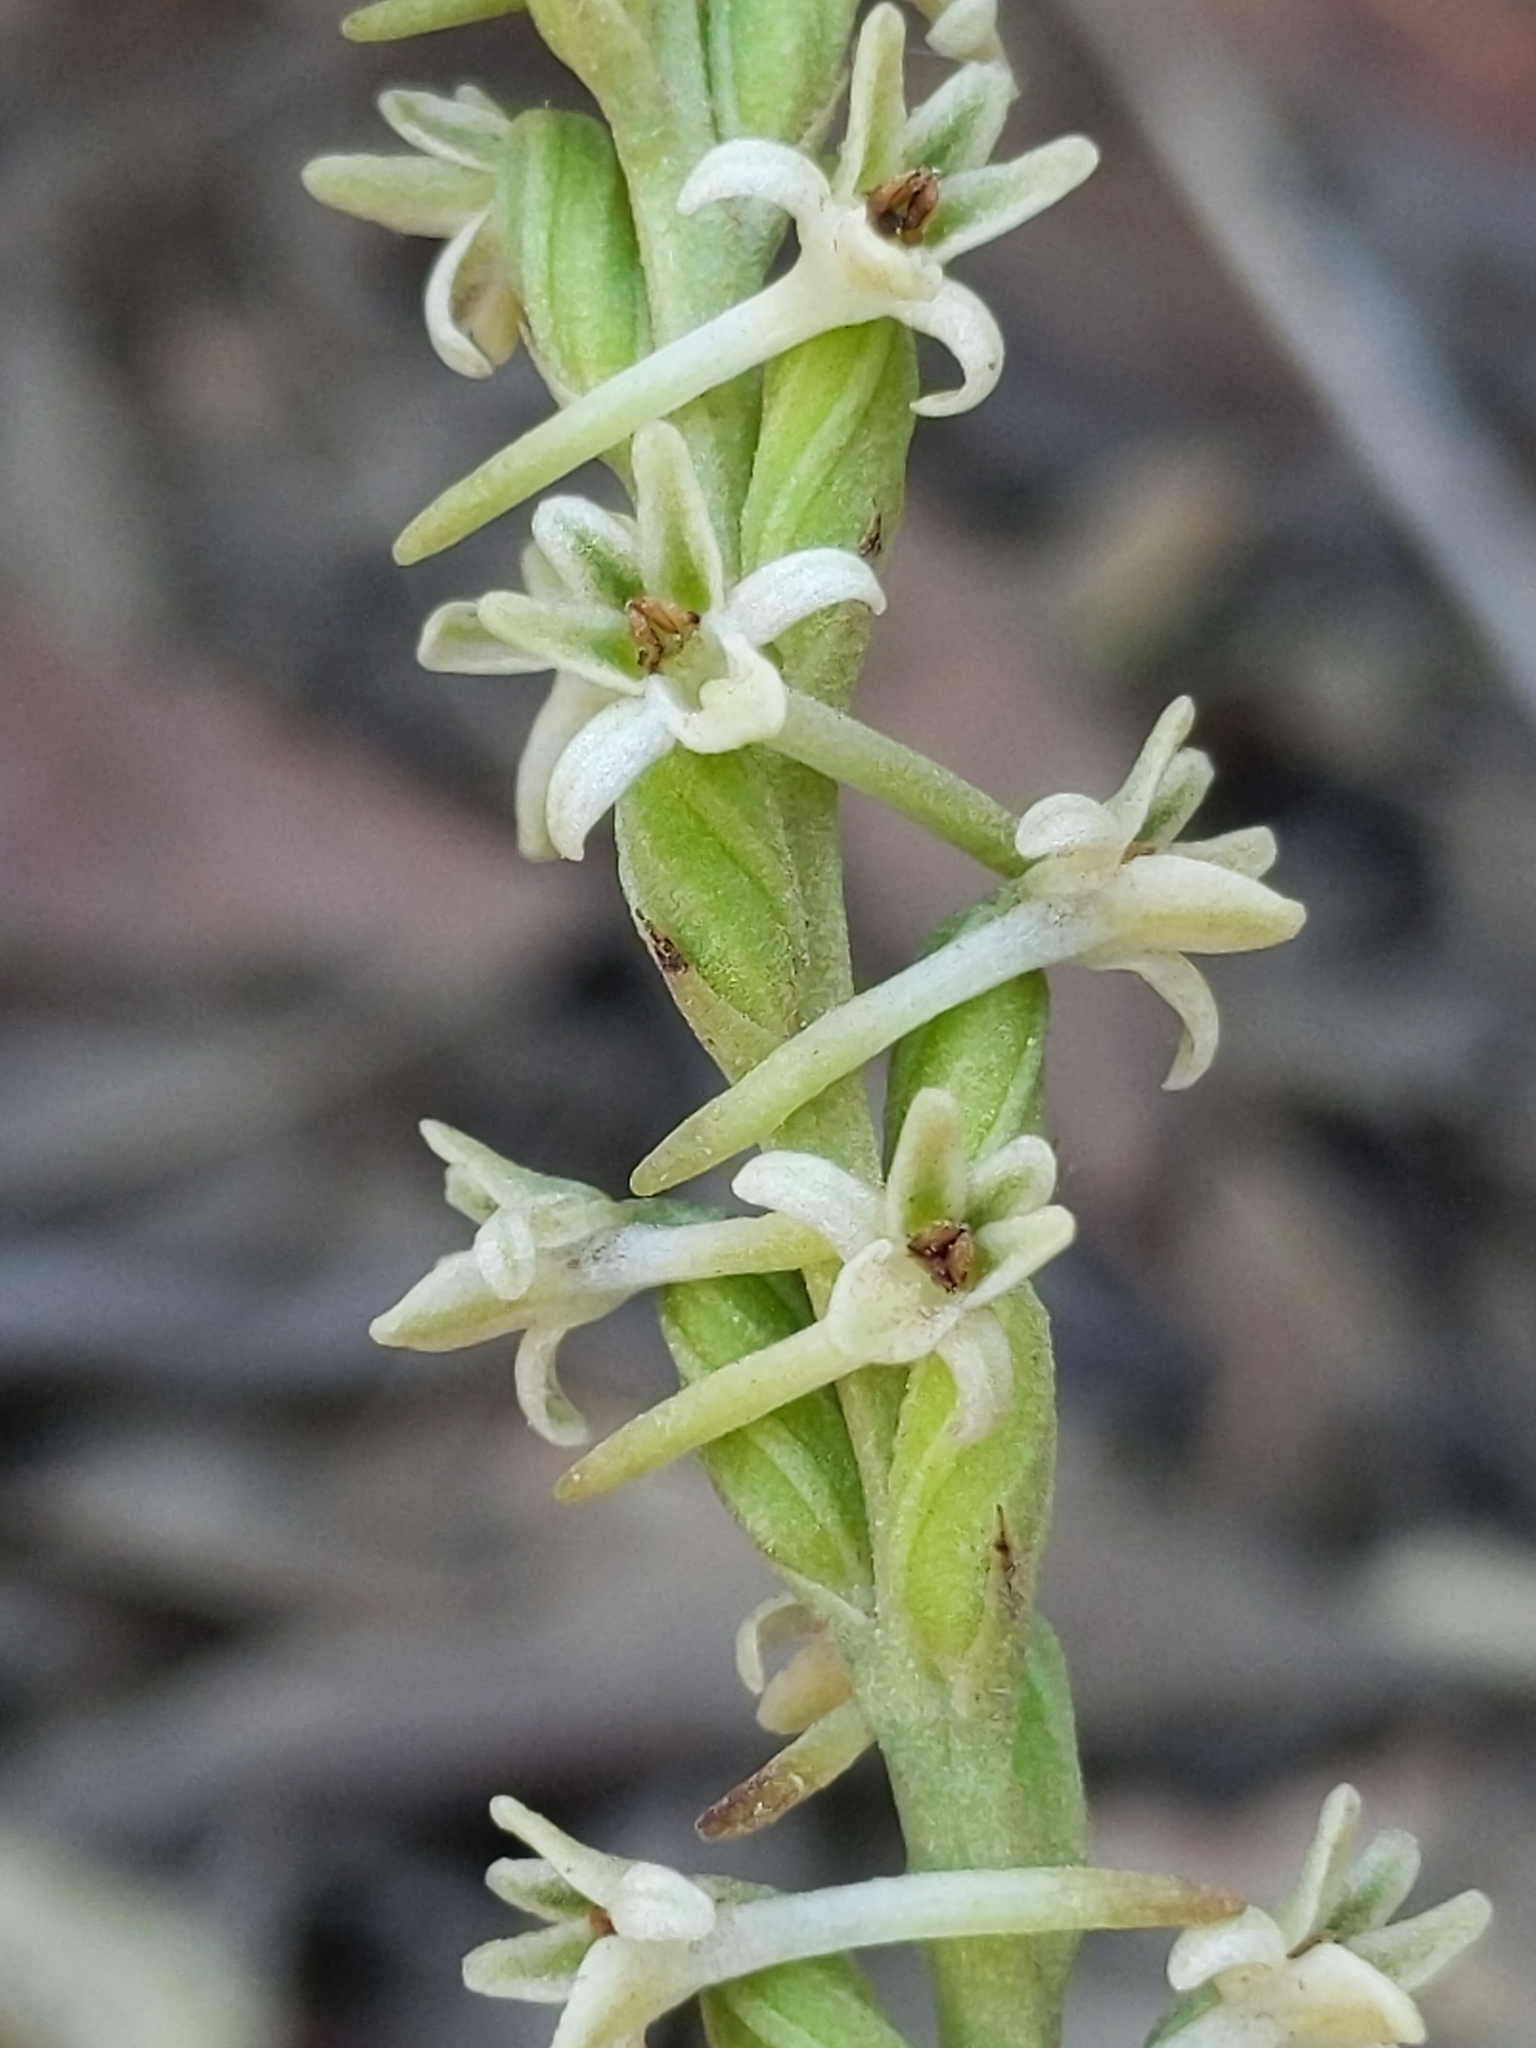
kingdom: Plantae
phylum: Tracheophyta
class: Liliopsida
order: Asparagales
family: Orchidaceae
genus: Platanthera
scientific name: Platanthera transversa
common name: Royal rein orchid
